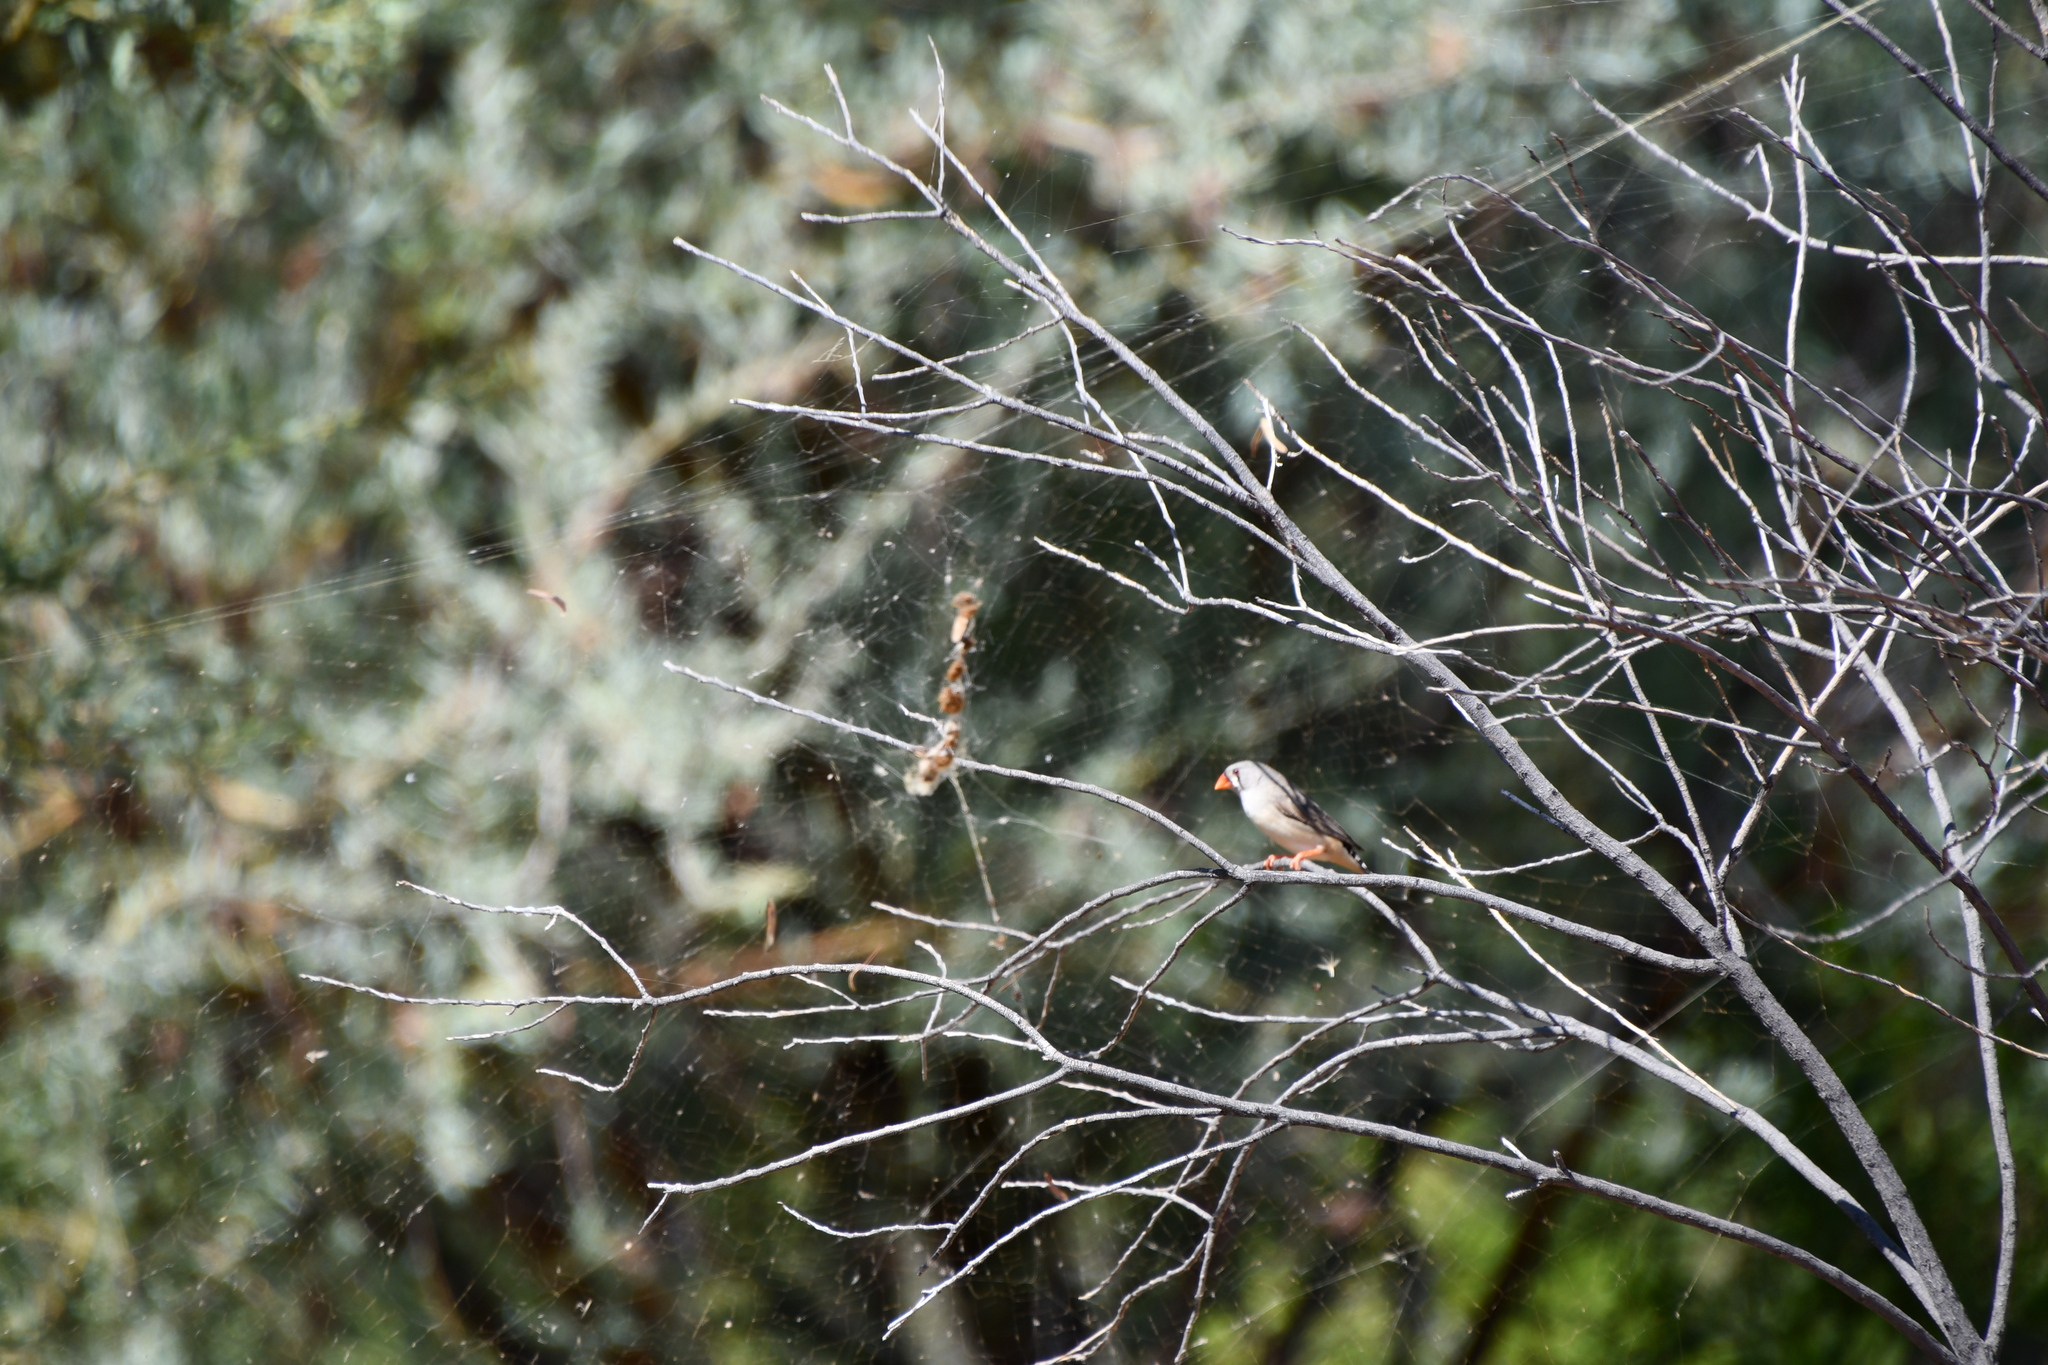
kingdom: Animalia
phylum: Chordata
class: Aves
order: Passeriformes
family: Estrildidae
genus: Taeniopygia
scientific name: Taeniopygia guttata
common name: Zebra finch
